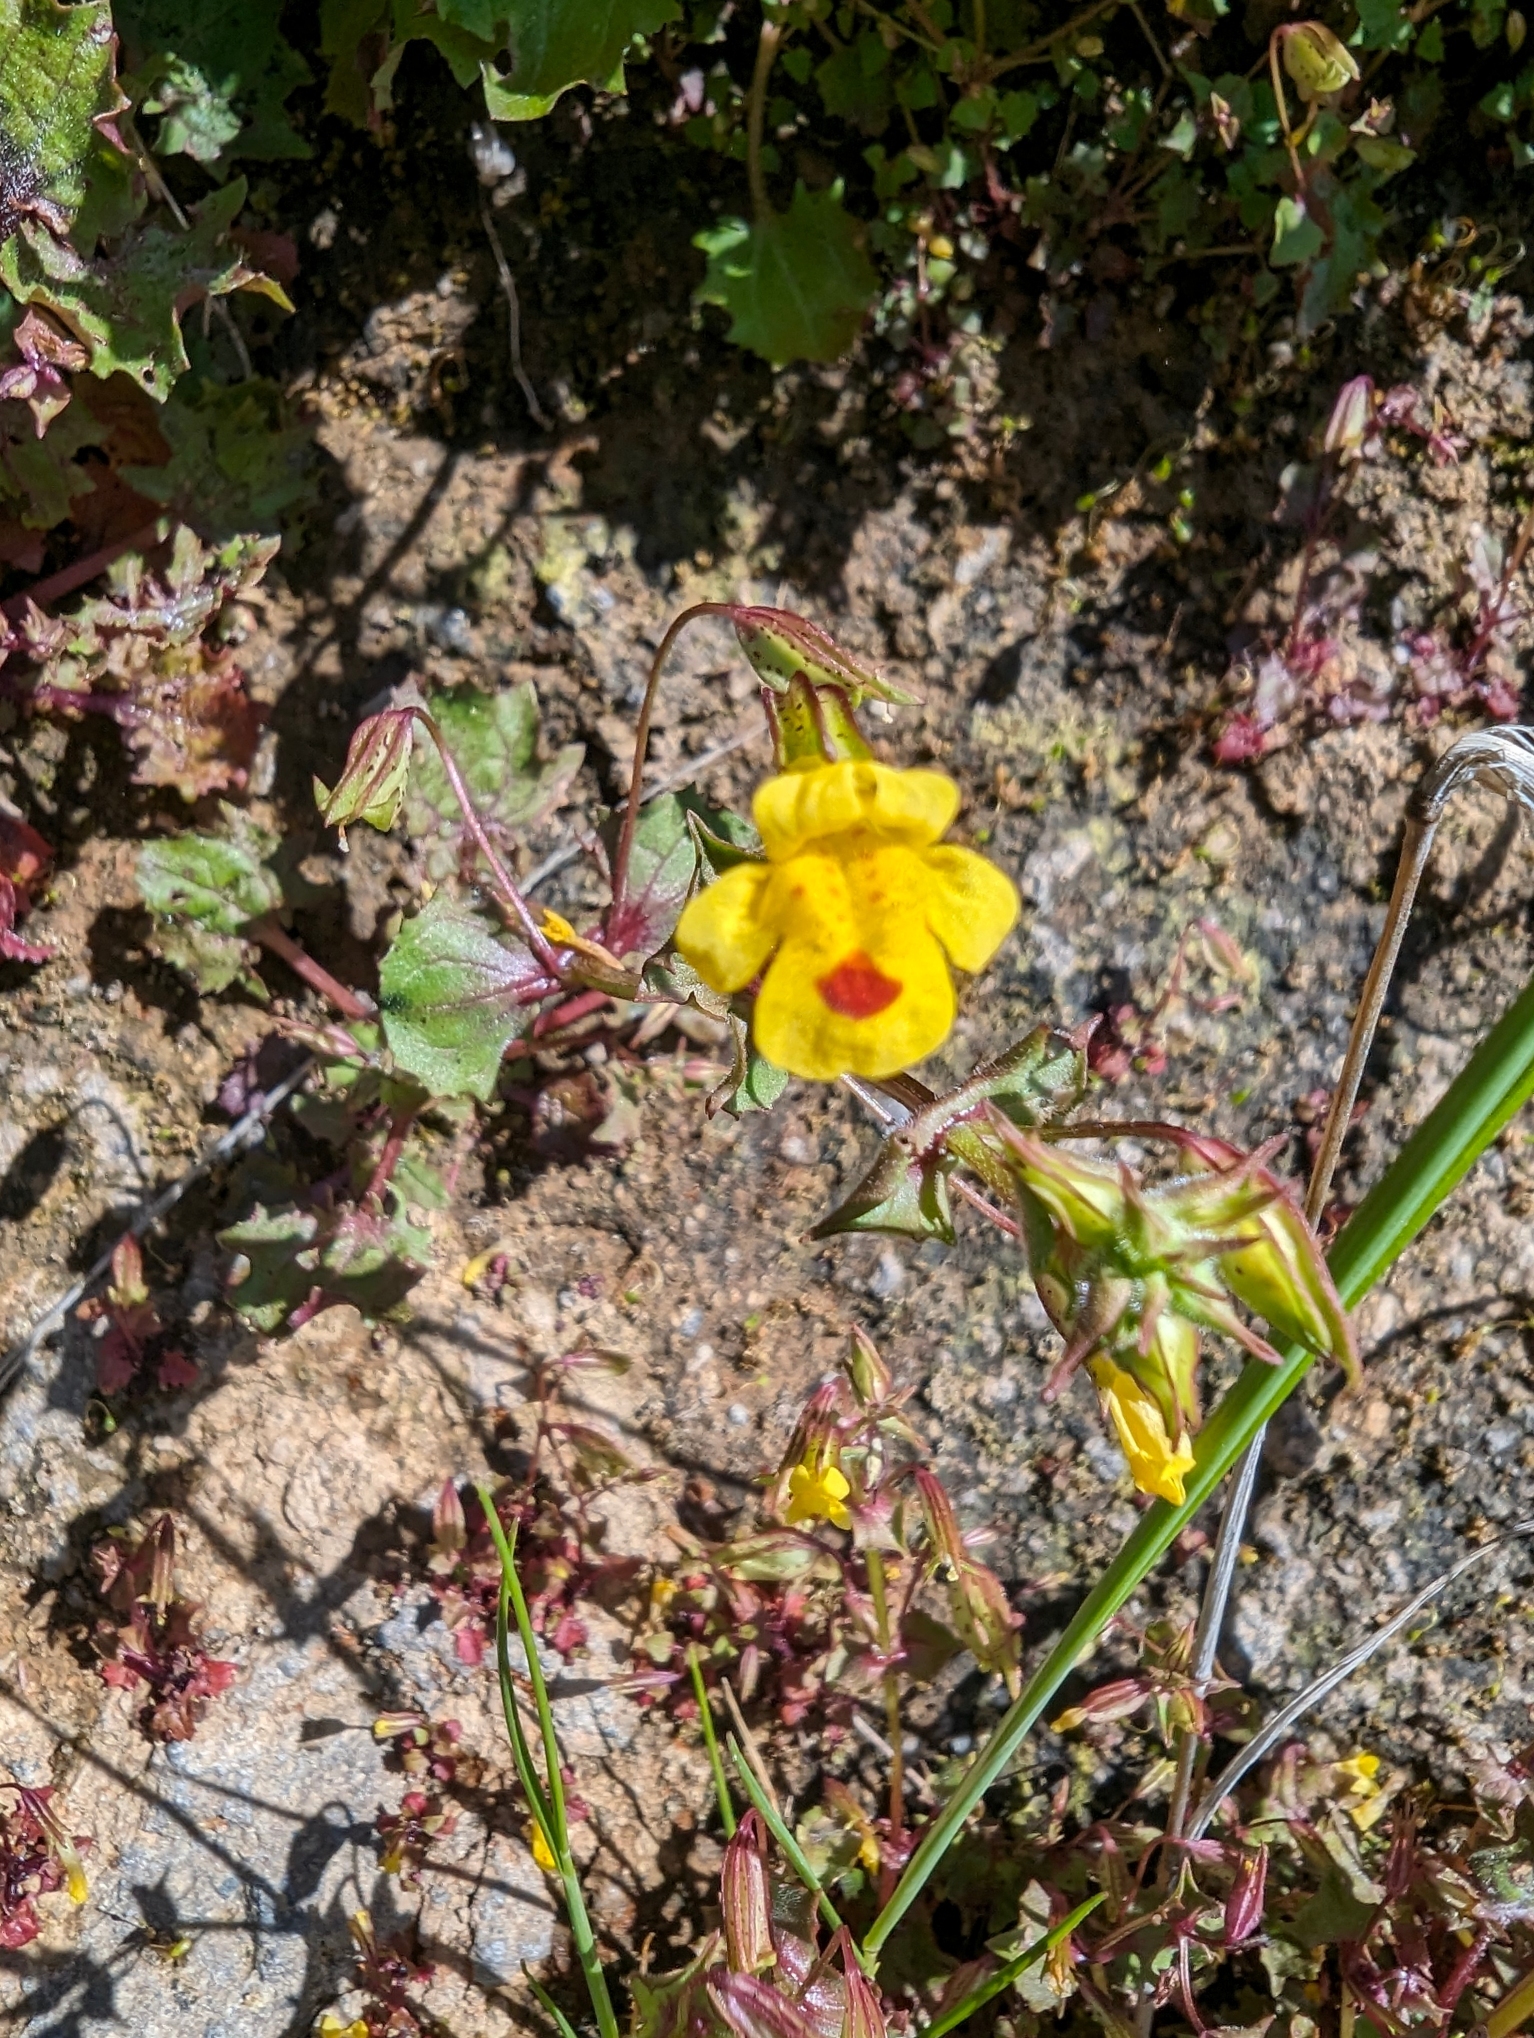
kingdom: Plantae
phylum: Tracheophyta
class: Magnoliopsida
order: Lamiales
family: Phrymaceae
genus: Erythranthe
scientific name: Erythranthe nasuta
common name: Sooke monkeyflower
